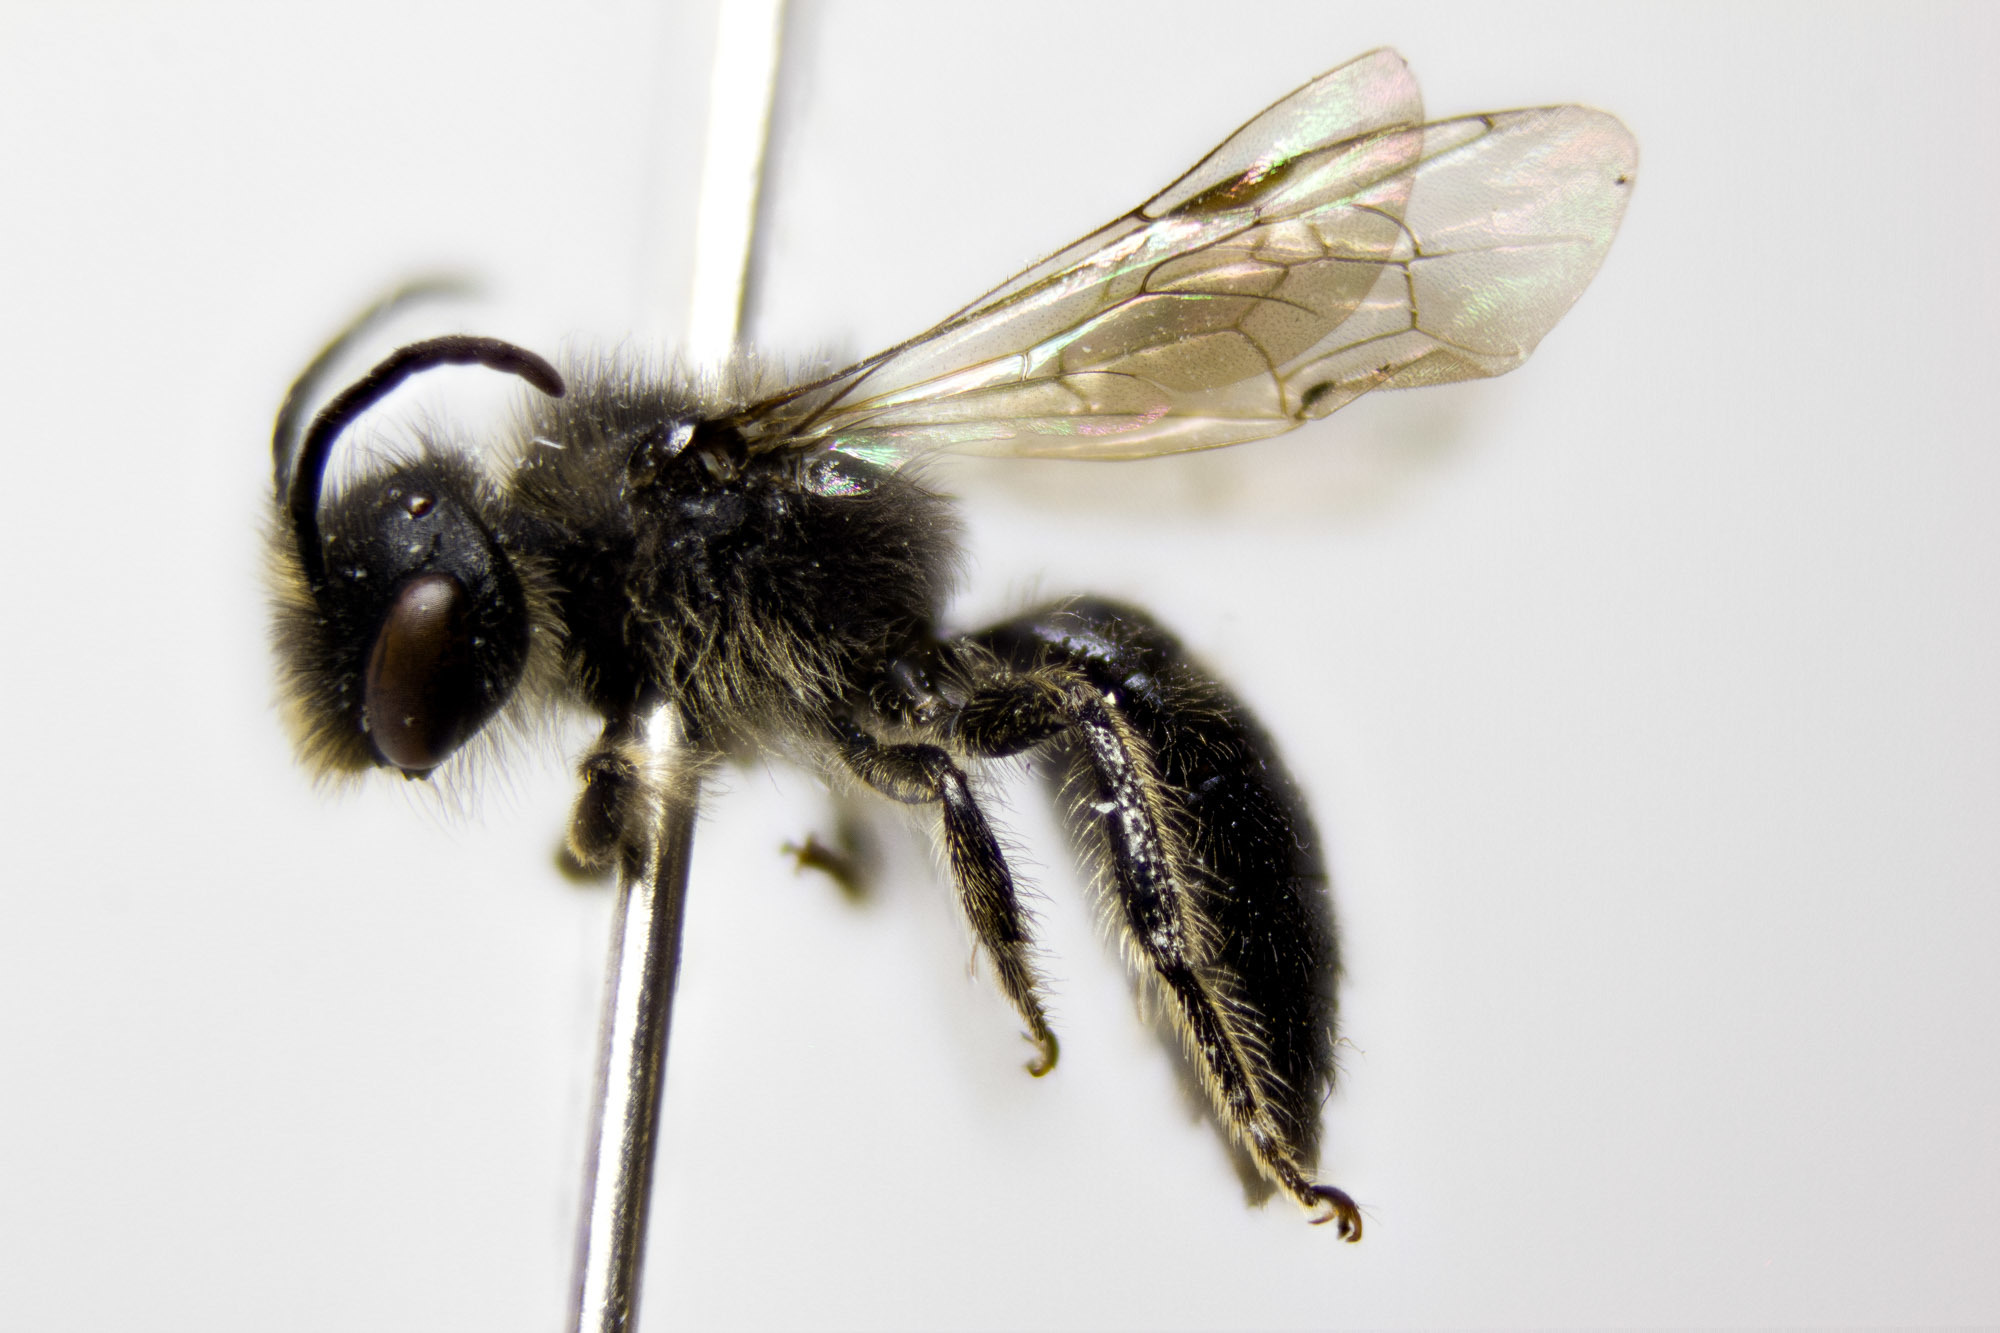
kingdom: Animalia
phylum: Arthropoda
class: Insecta
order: Hymenoptera
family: Colletidae
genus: Leioproctus
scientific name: Leioproctus pango
